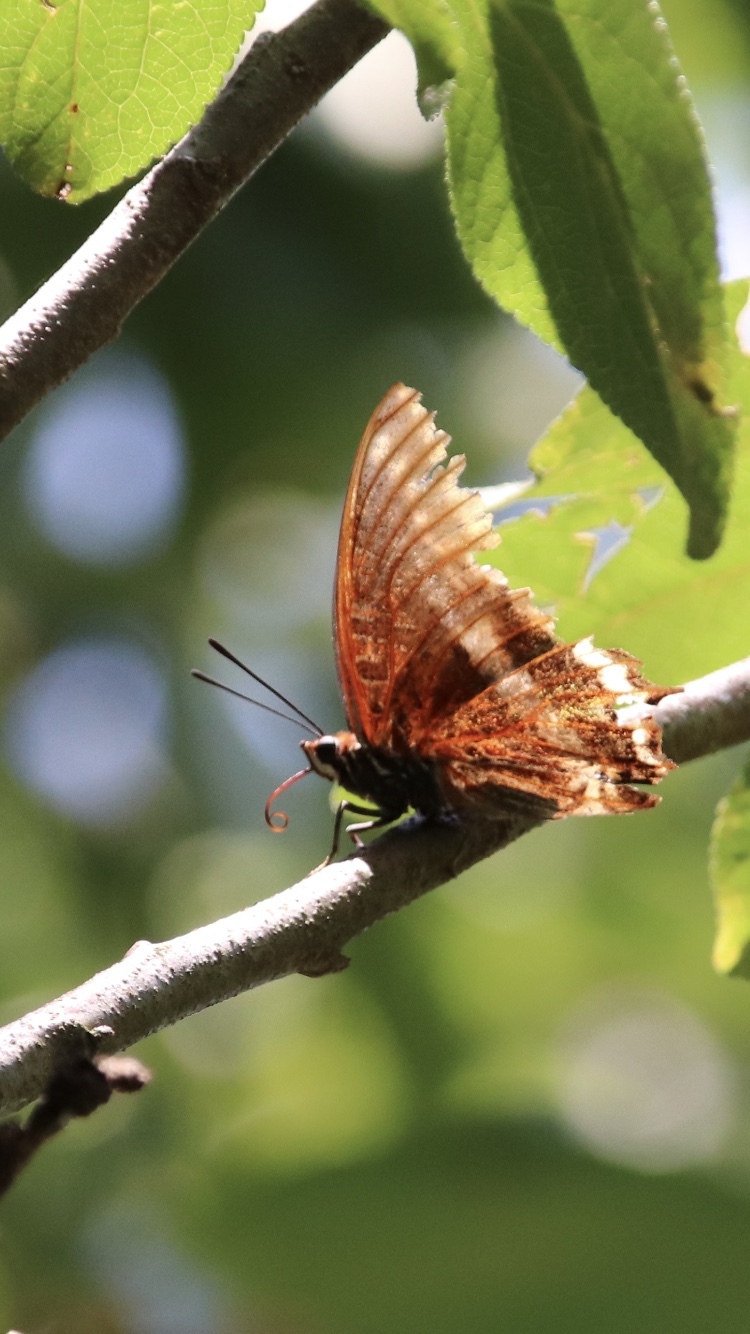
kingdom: Animalia
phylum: Arthropoda
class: Insecta
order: Lepidoptera
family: Nymphalidae
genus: Charaxes
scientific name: Charaxes jasius
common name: Two tailed pasha
